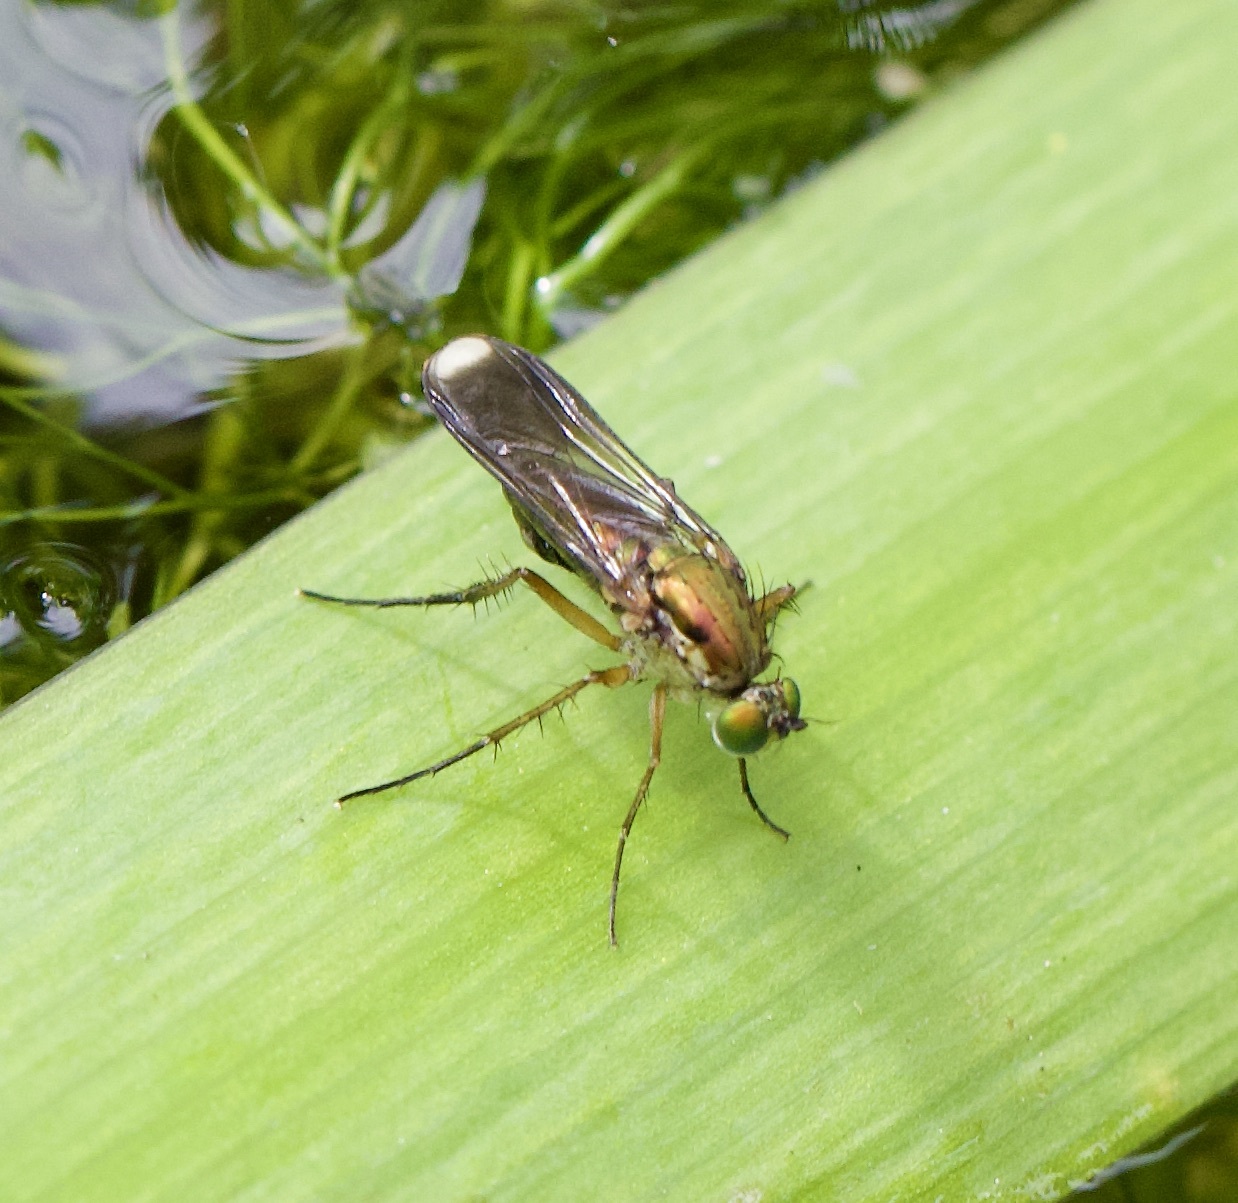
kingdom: Animalia
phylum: Arthropoda
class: Insecta
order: Diptera
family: Dolichopodidae
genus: Poecilobothrus
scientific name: Poecilobothrus nobilitatus
